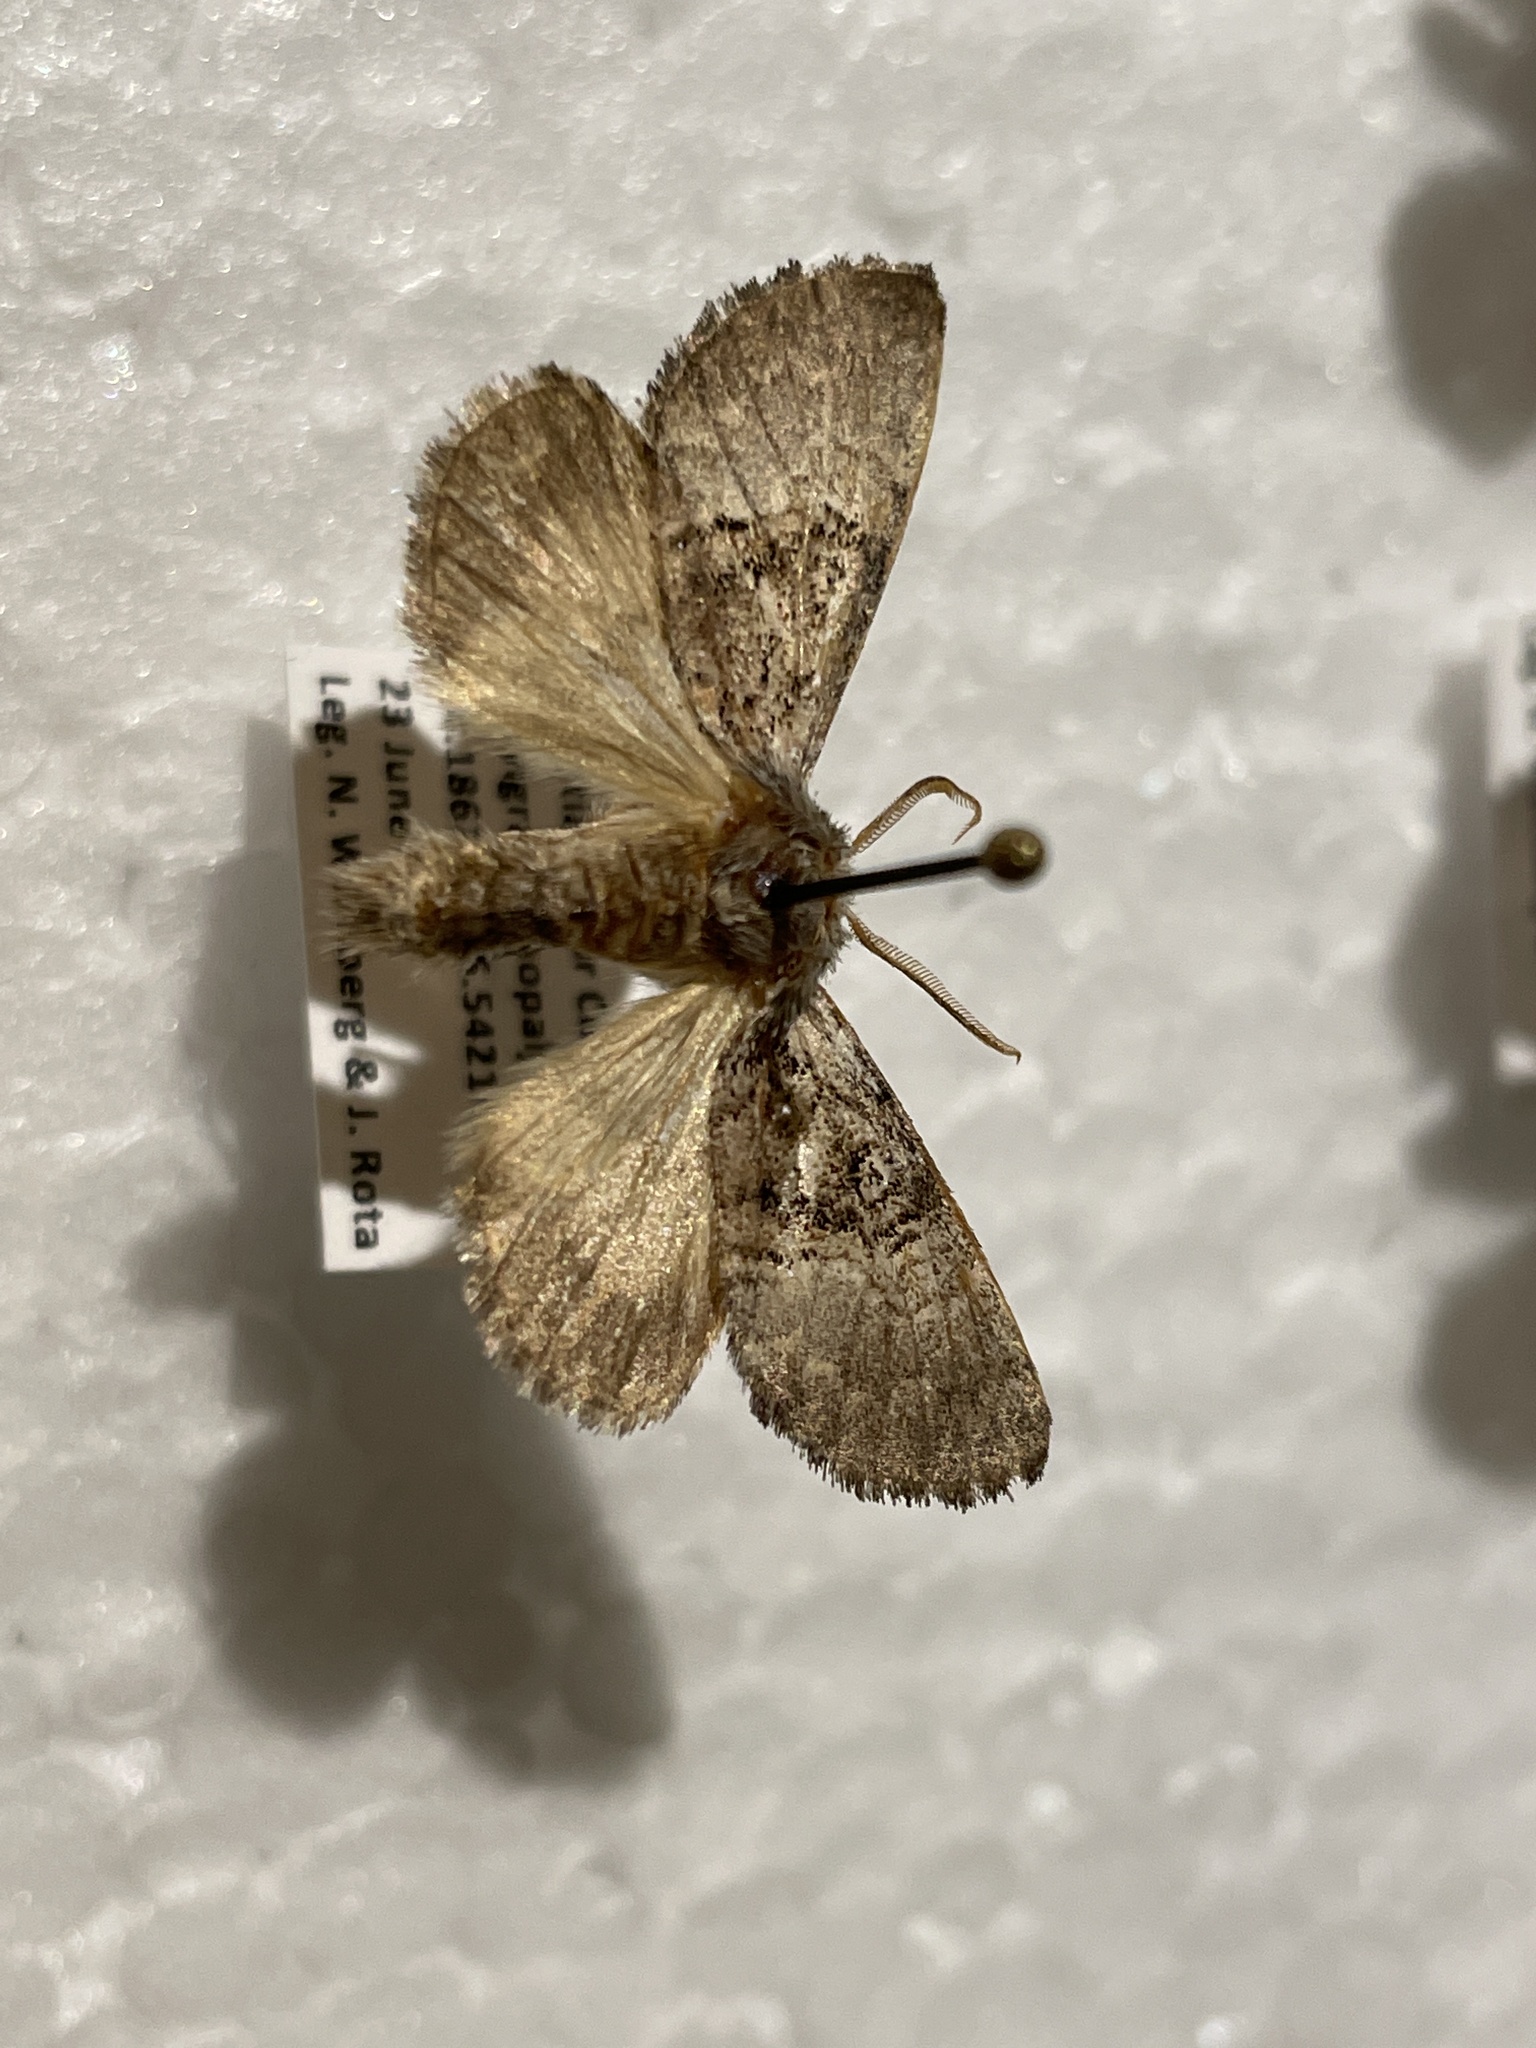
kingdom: Animalia
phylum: Arthropoda
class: Insecta
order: Lepidoptera
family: Noctuidae
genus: Colocasia
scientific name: Colocasia coryli
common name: Nut-tree tussock
